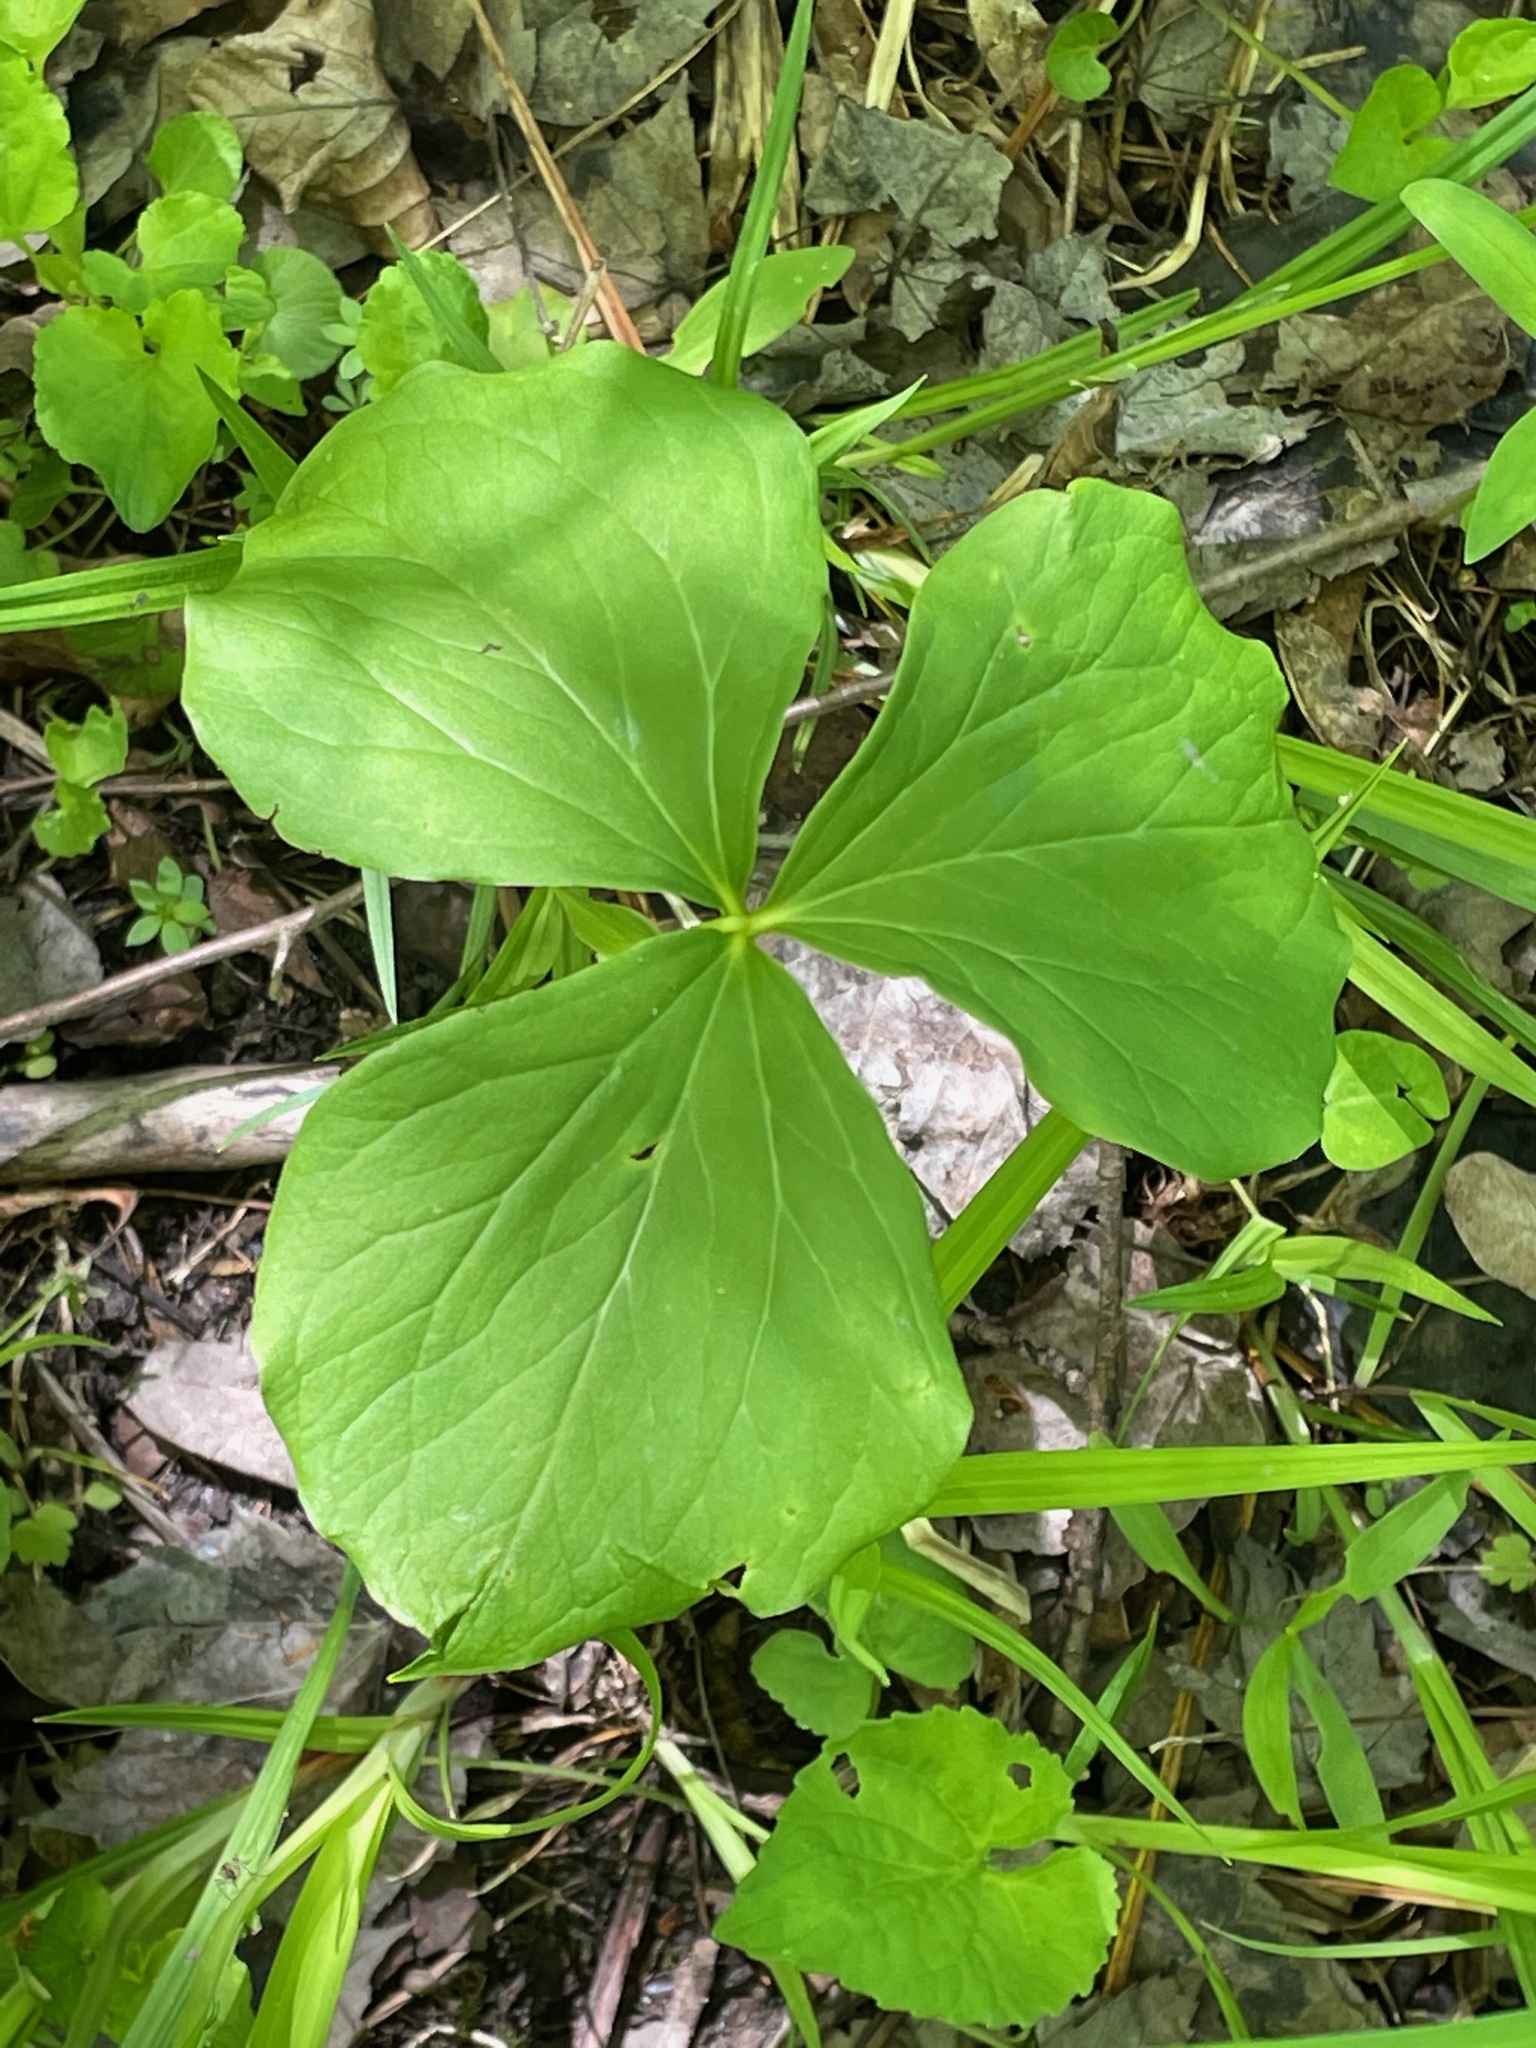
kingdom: Plantae
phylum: Tracheophyta
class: Liliopsida
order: Liliales
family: Melanthiaceae
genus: Trillium
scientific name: Trillium cernuum
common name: Nodding trillium
